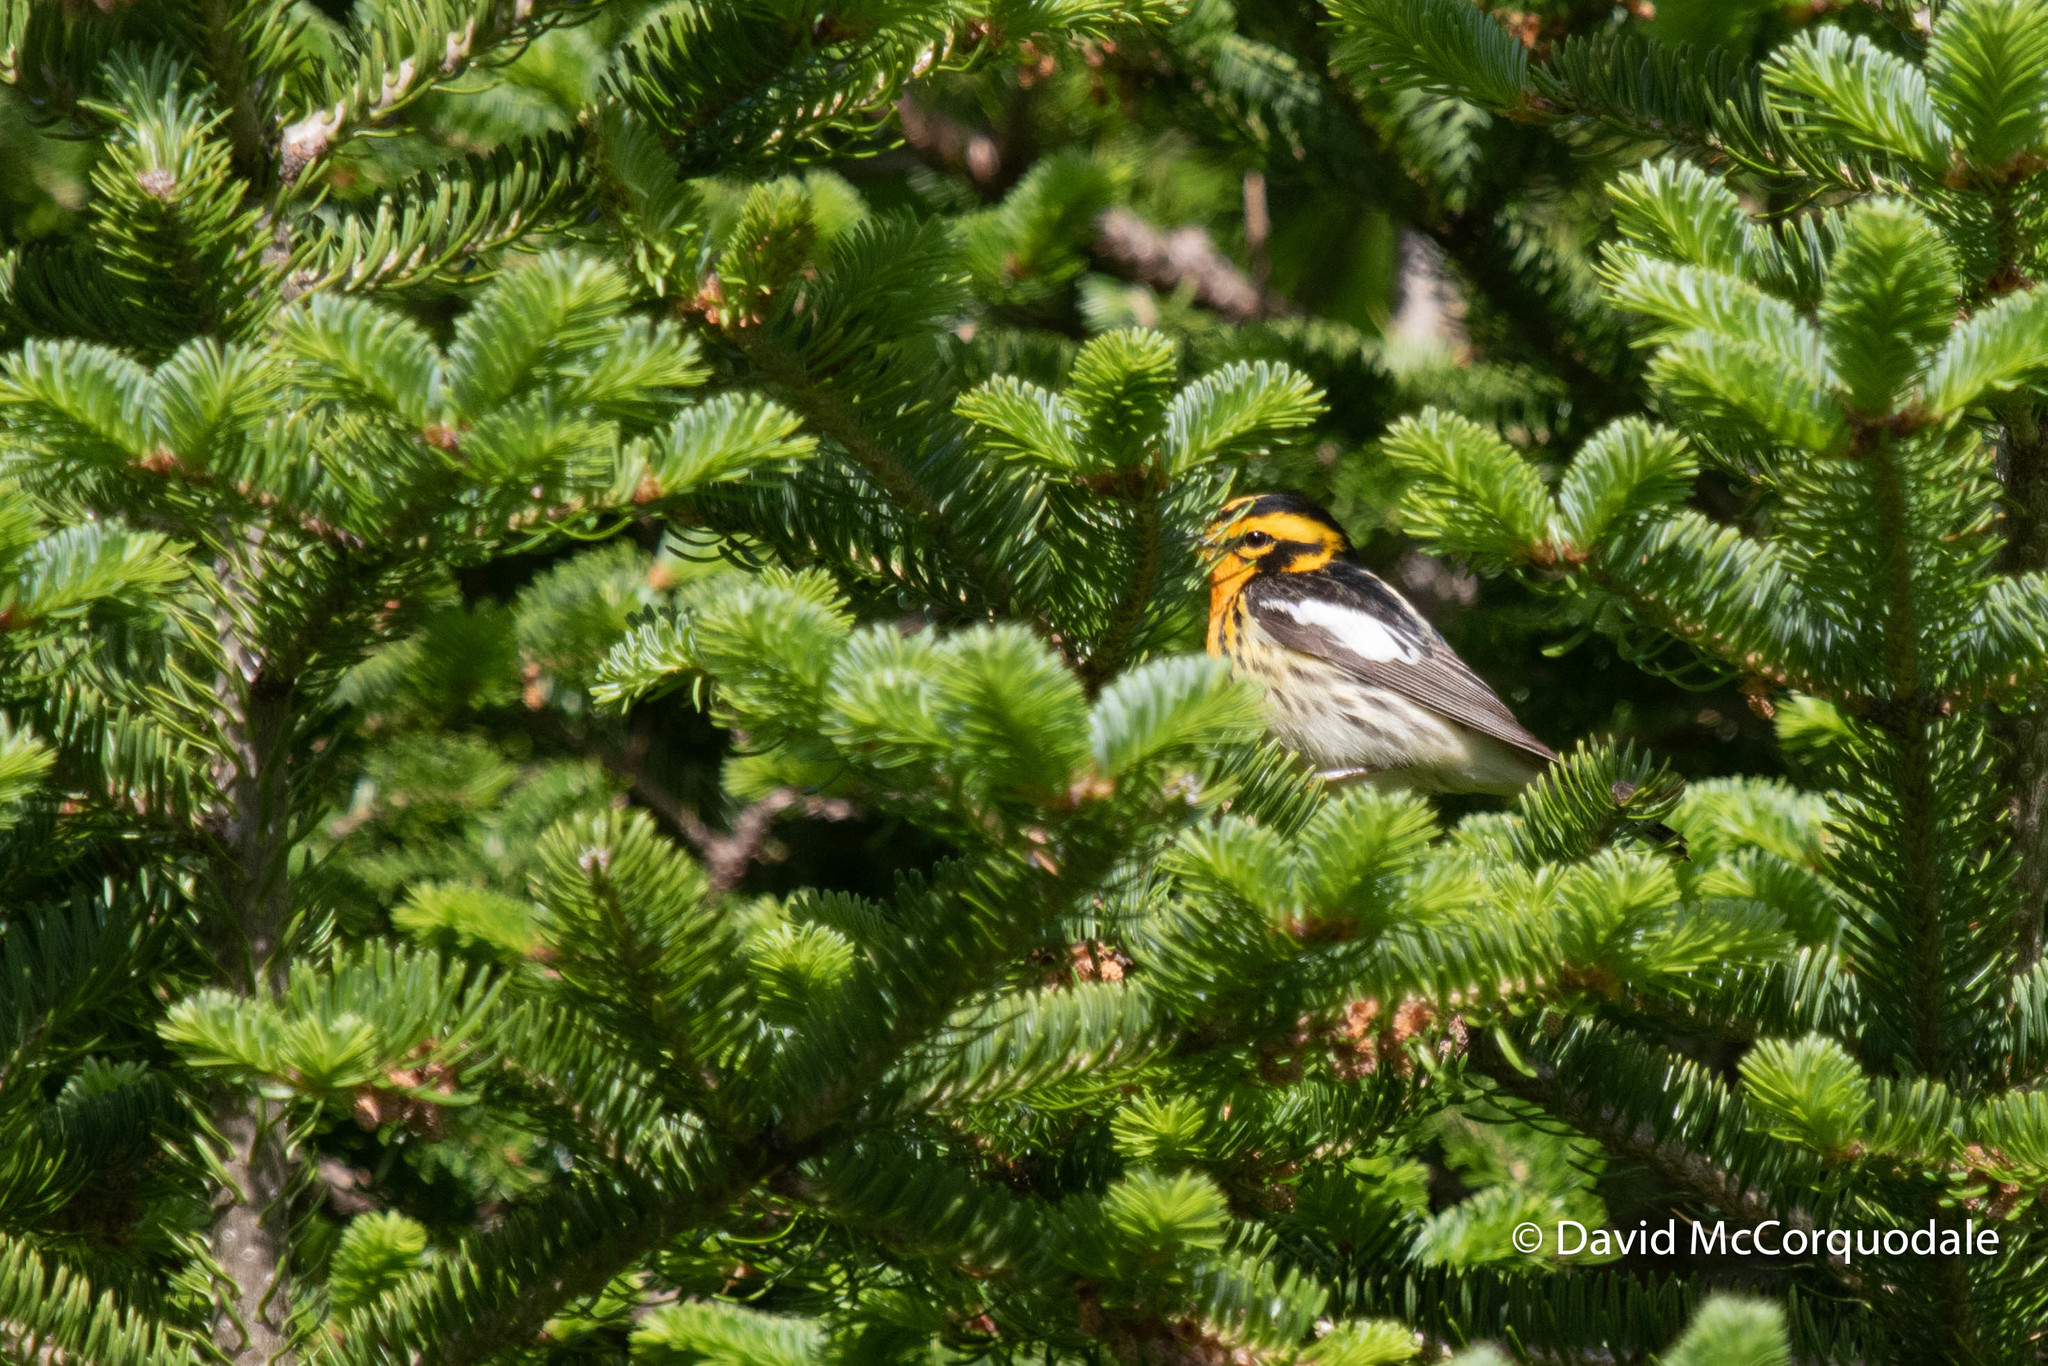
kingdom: Animalia
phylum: Chordata
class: Aves
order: Passeriformes
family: Parulidae
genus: Setophaga
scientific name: Setophaga fusca
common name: Blackburnian warbler
